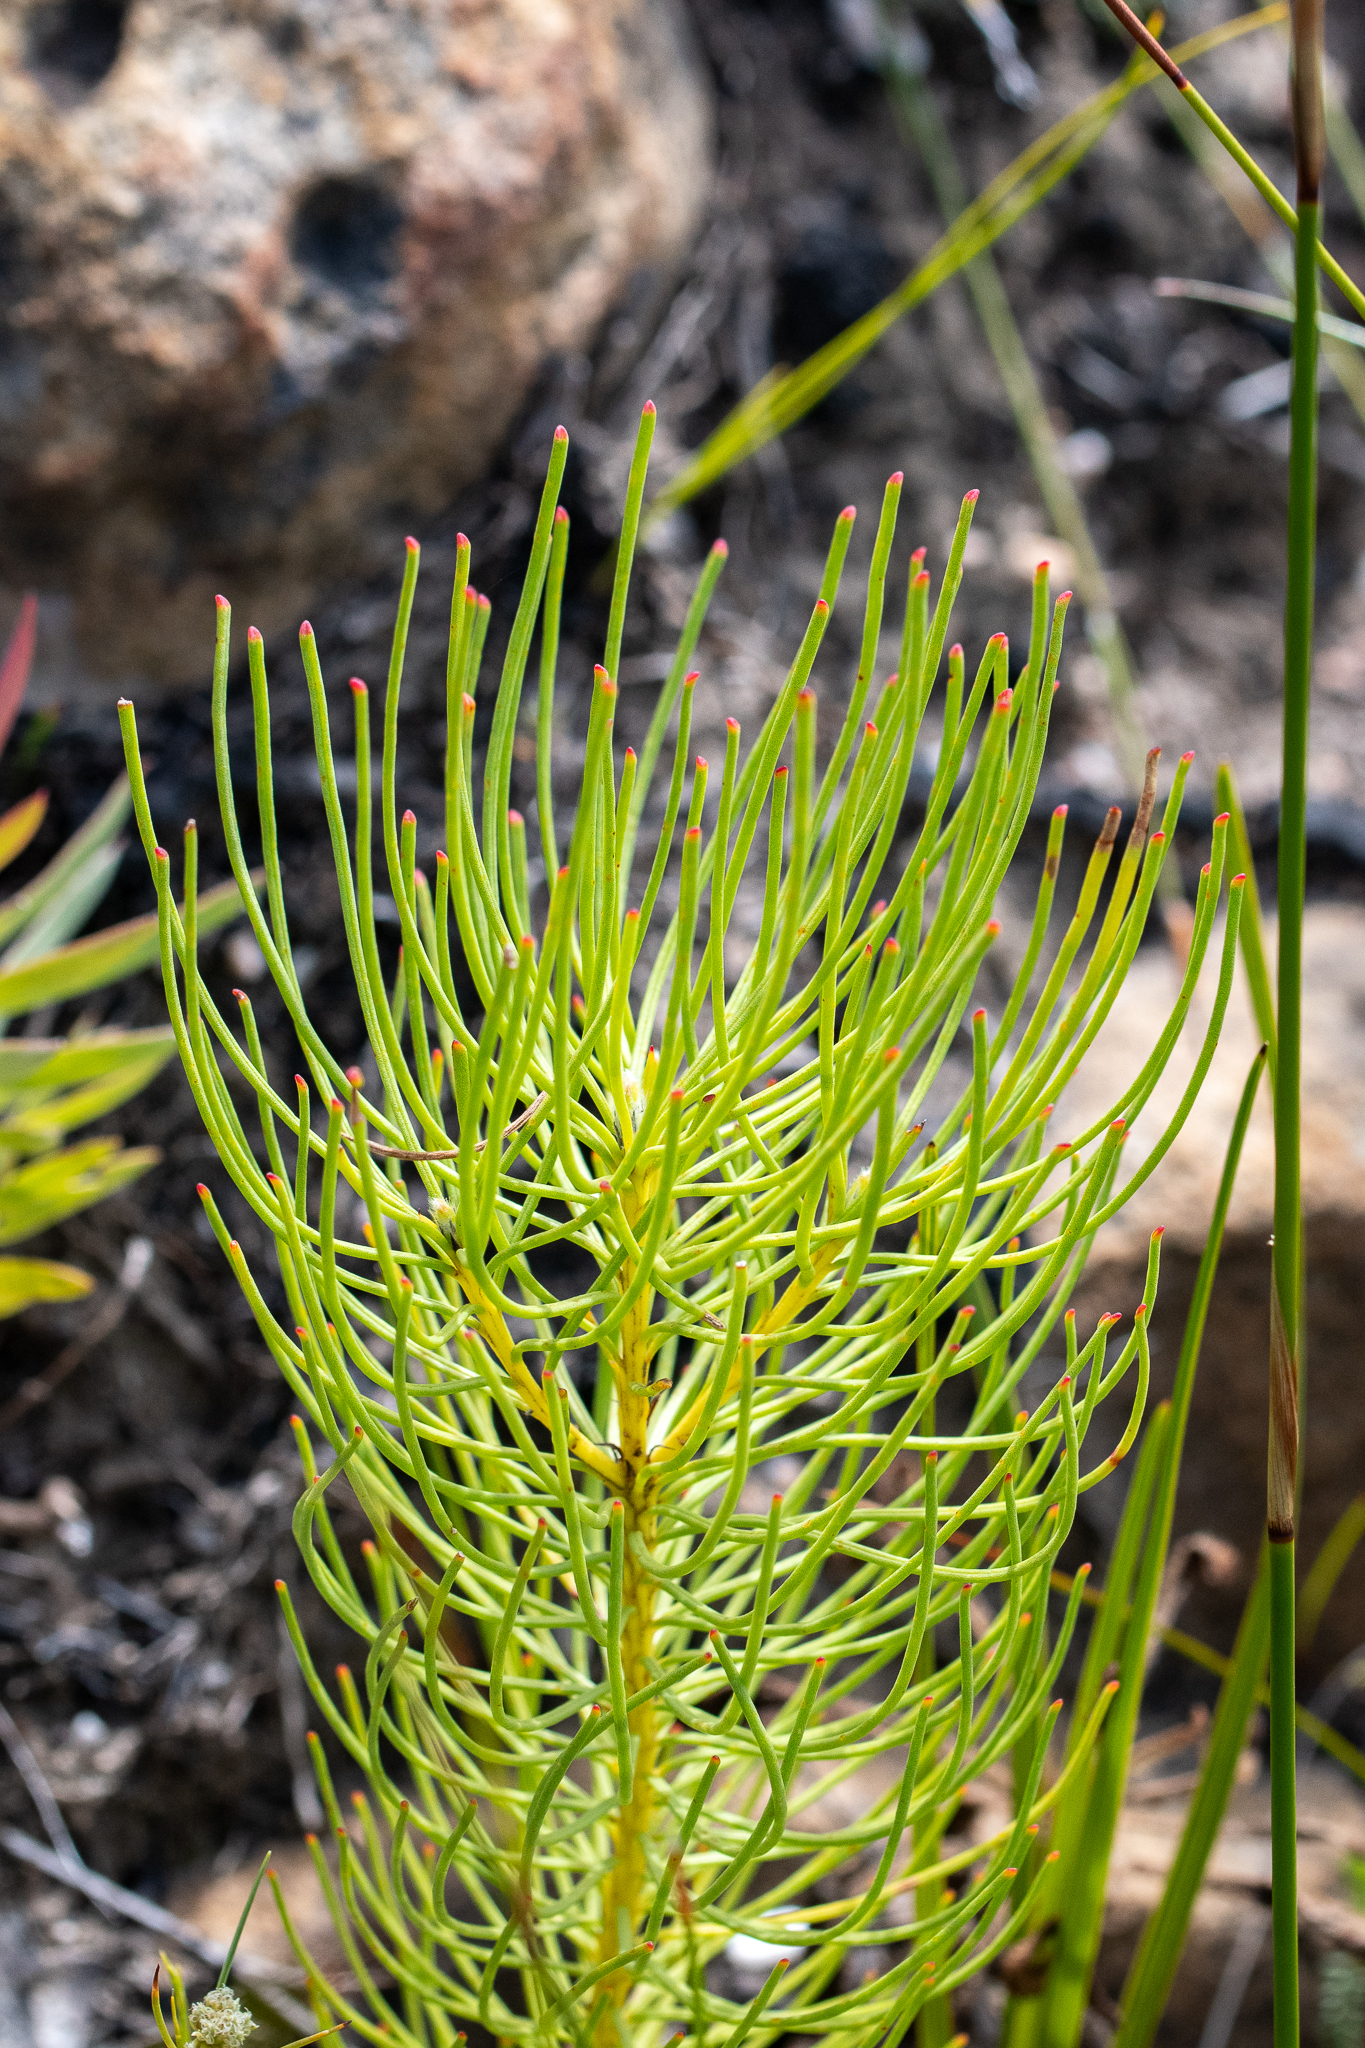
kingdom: Plantae
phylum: Tracheophyta
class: Magnoliopsida
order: Proteales
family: Proteaceae
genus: Leucadendron
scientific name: Leucadendron platyspermum
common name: Plate-seed conebush
